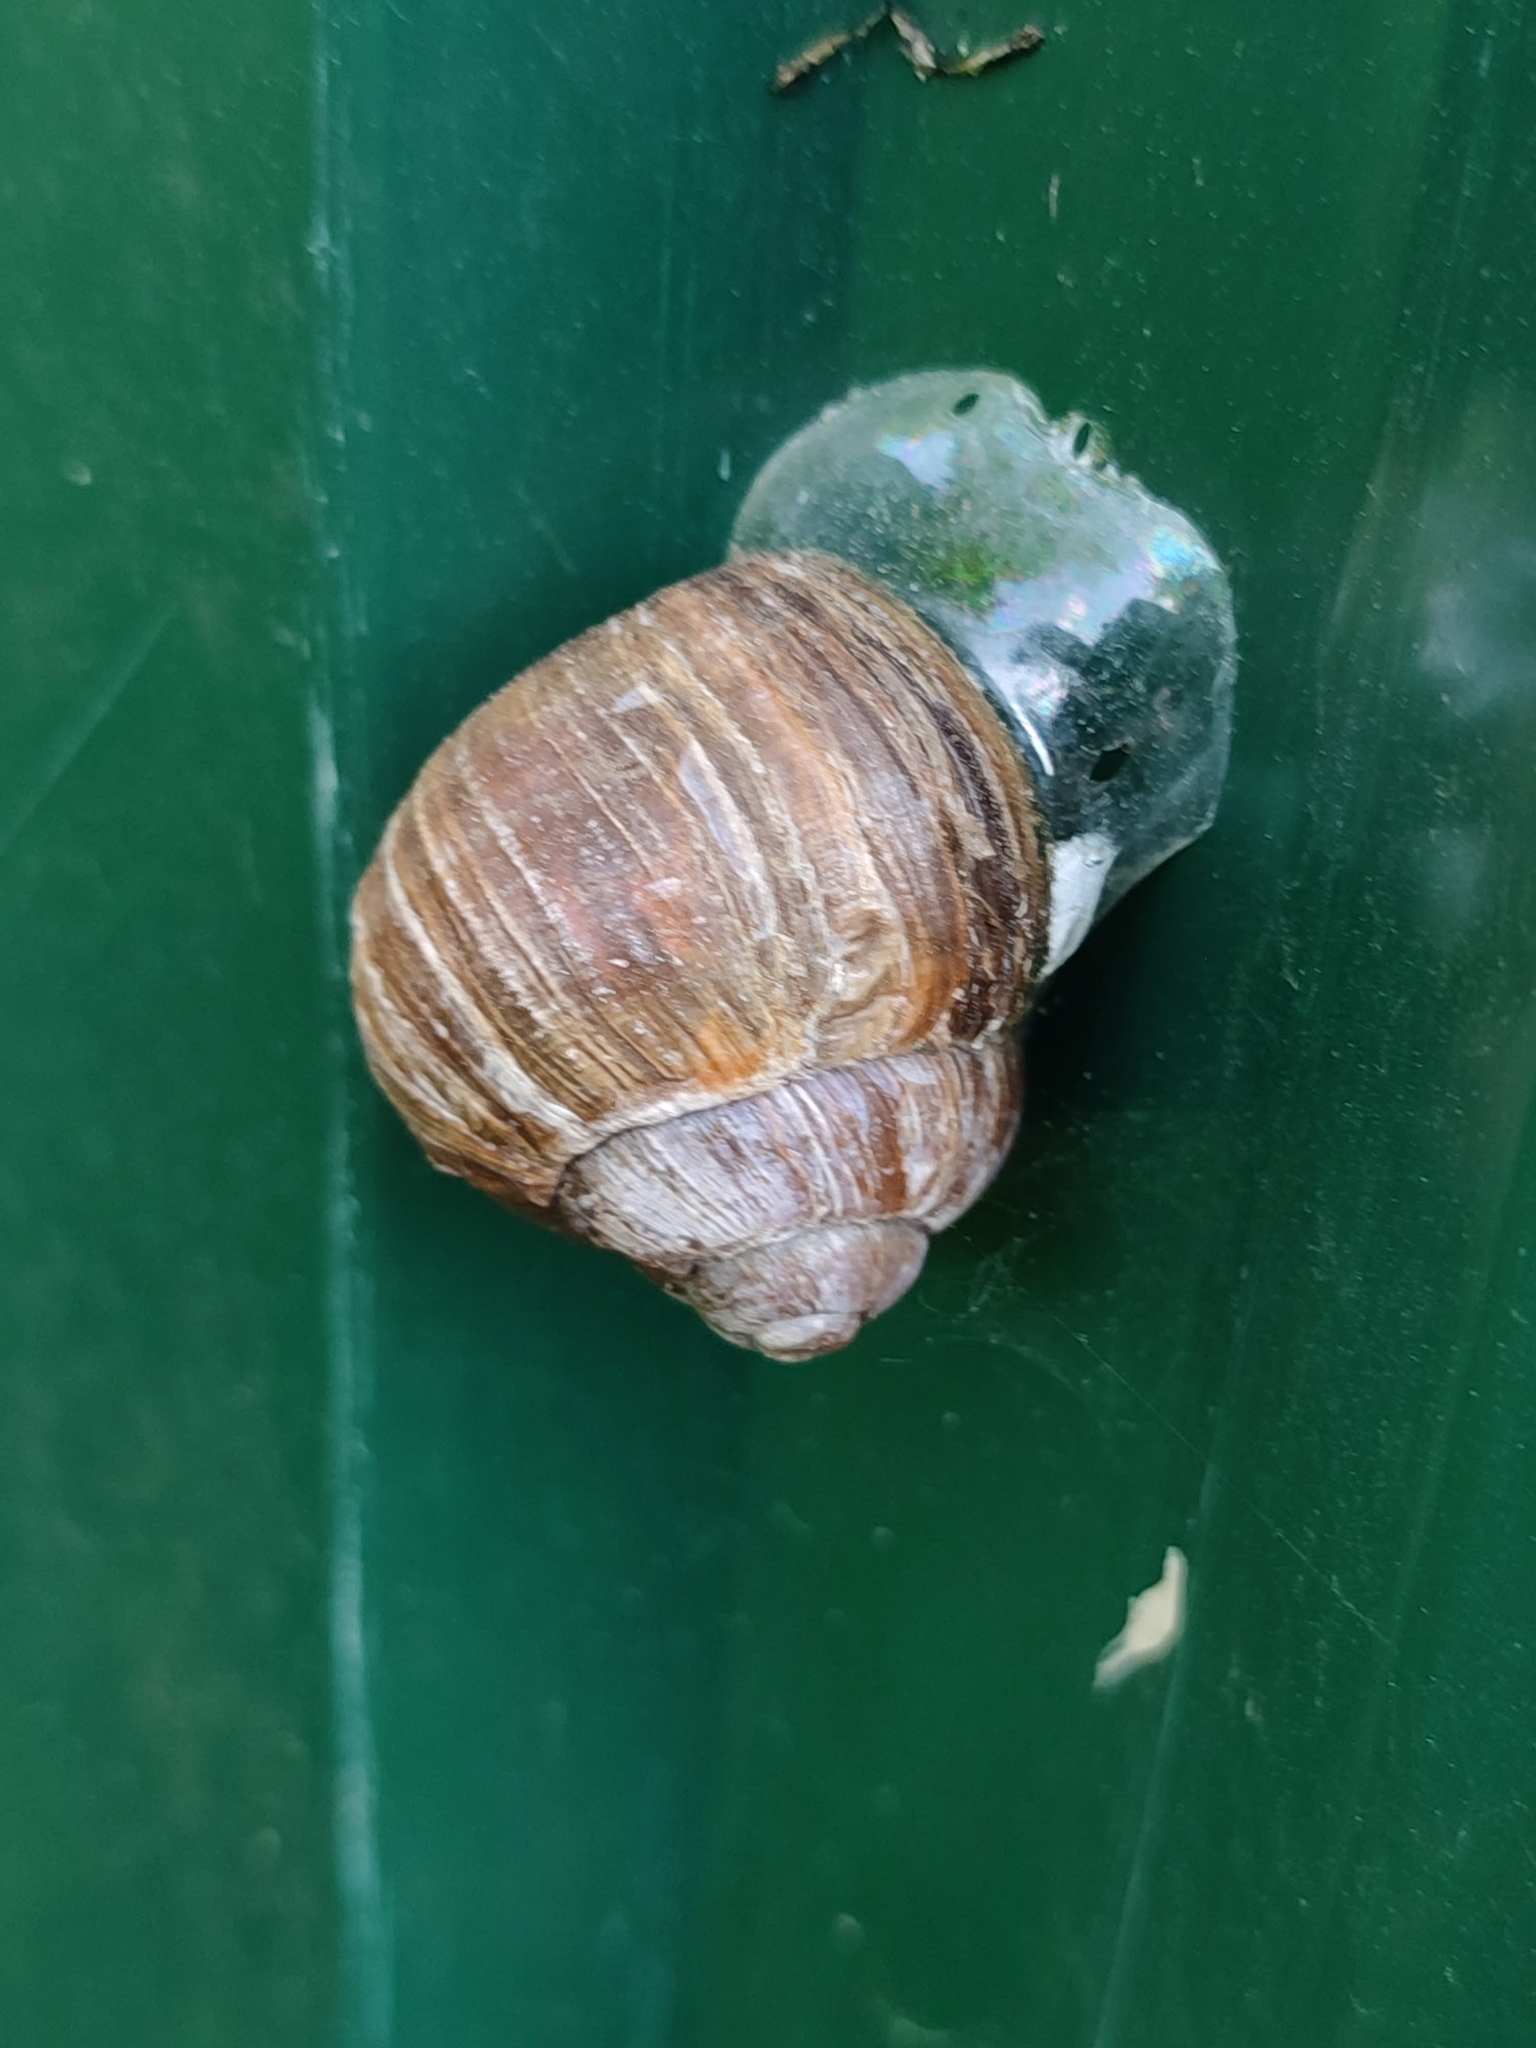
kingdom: Animalia
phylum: Mollusca
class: Gastropoda
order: Stylommatophora
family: Helicidae
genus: Helix
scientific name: Helix pomatia
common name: Roman snail
